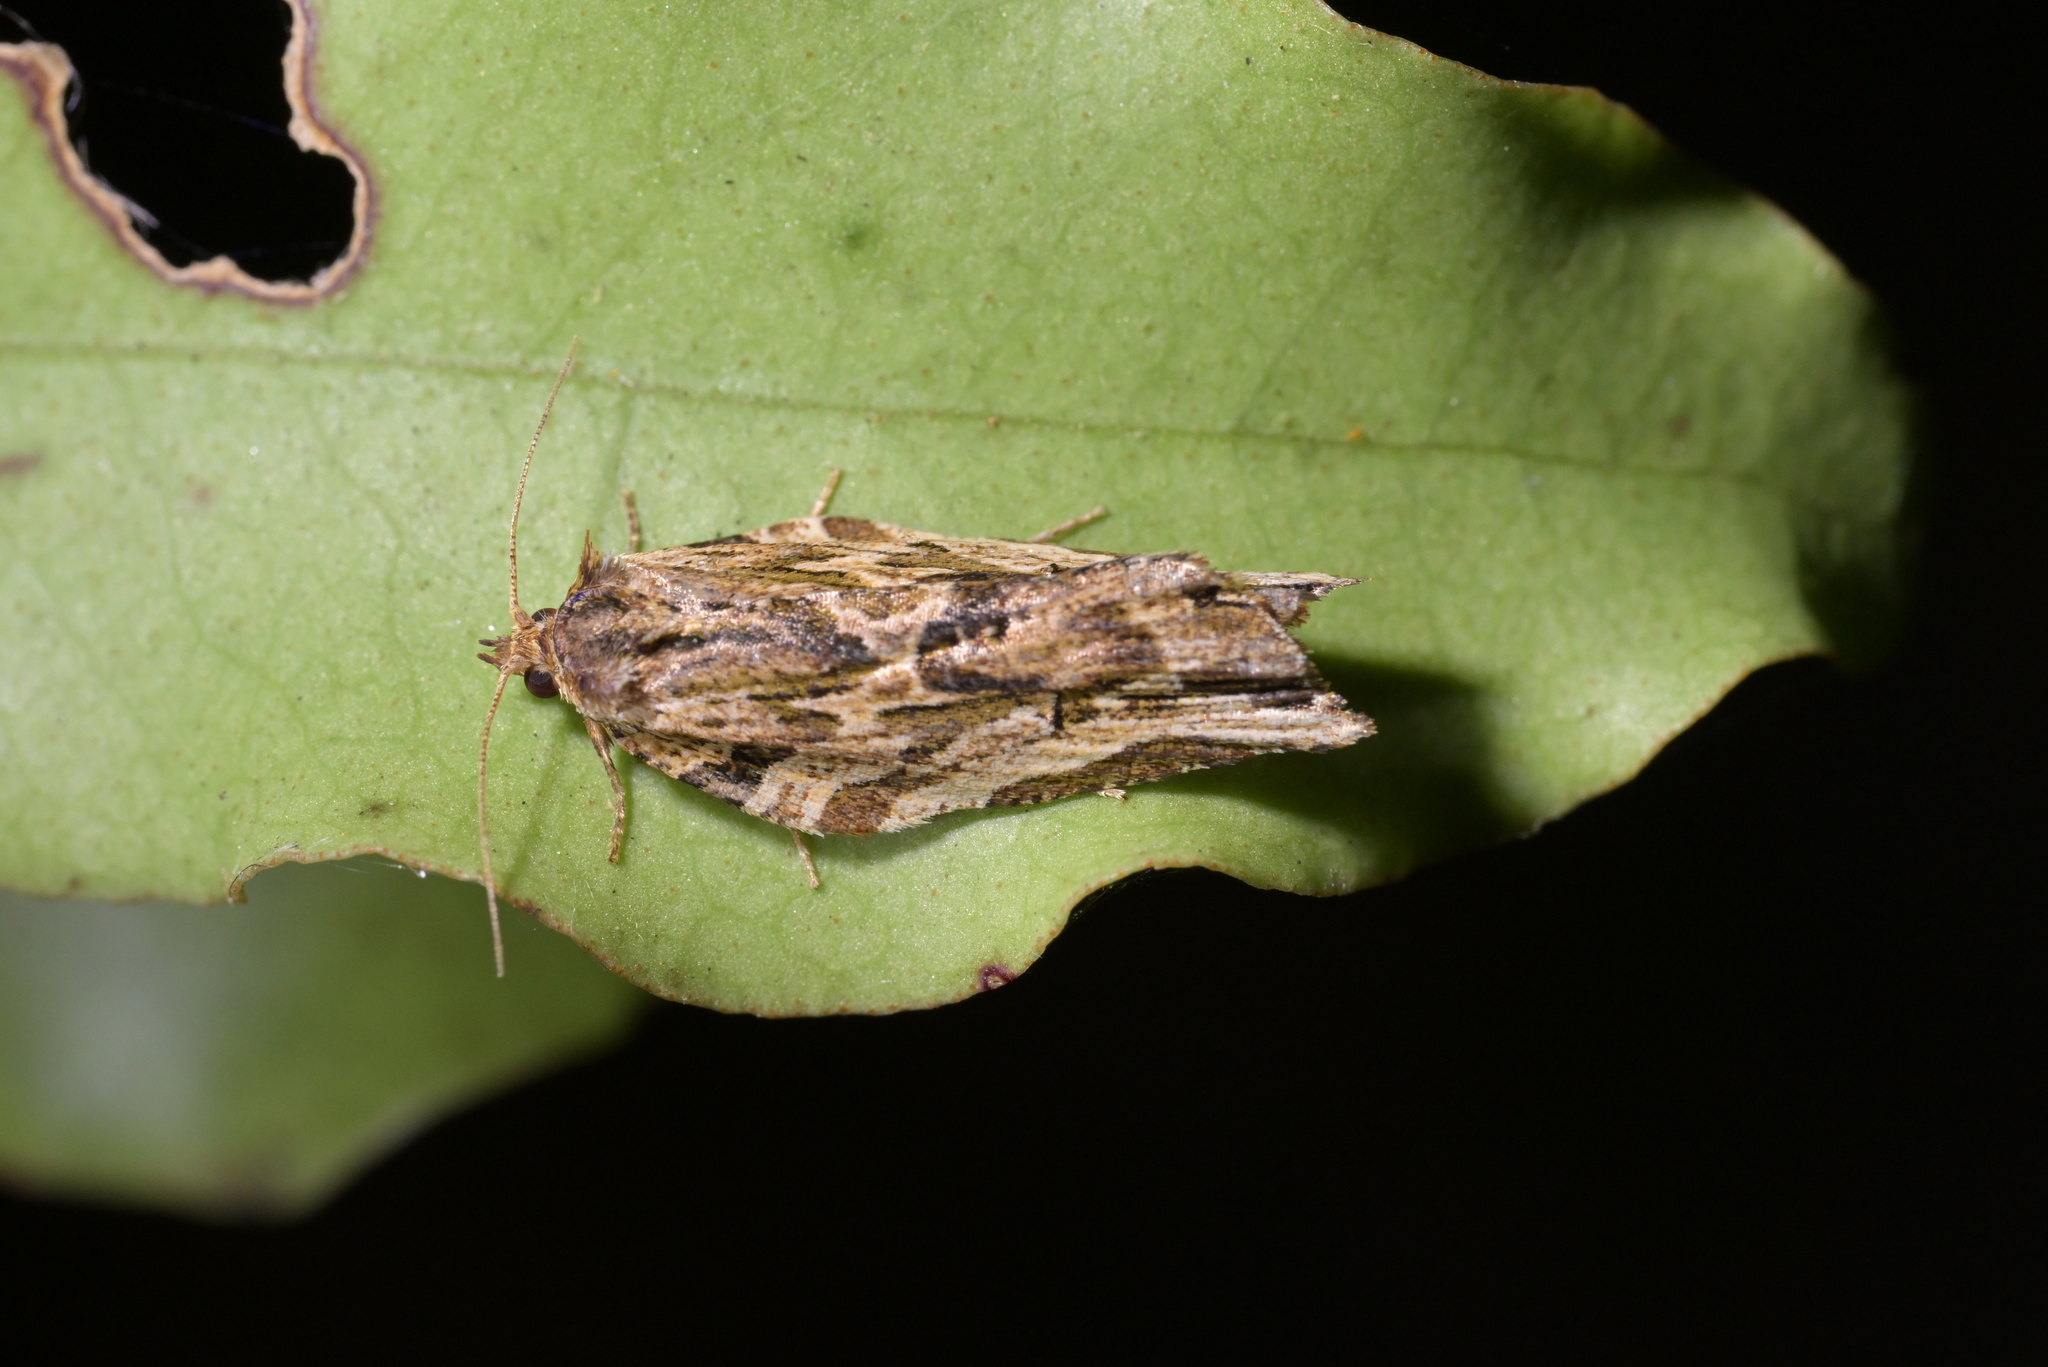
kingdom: Animalia
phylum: Arthropoda
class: Insecta
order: Lepidoptera
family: Tortricidae
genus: Epalxiphora
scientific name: Epalxiphora axenana
